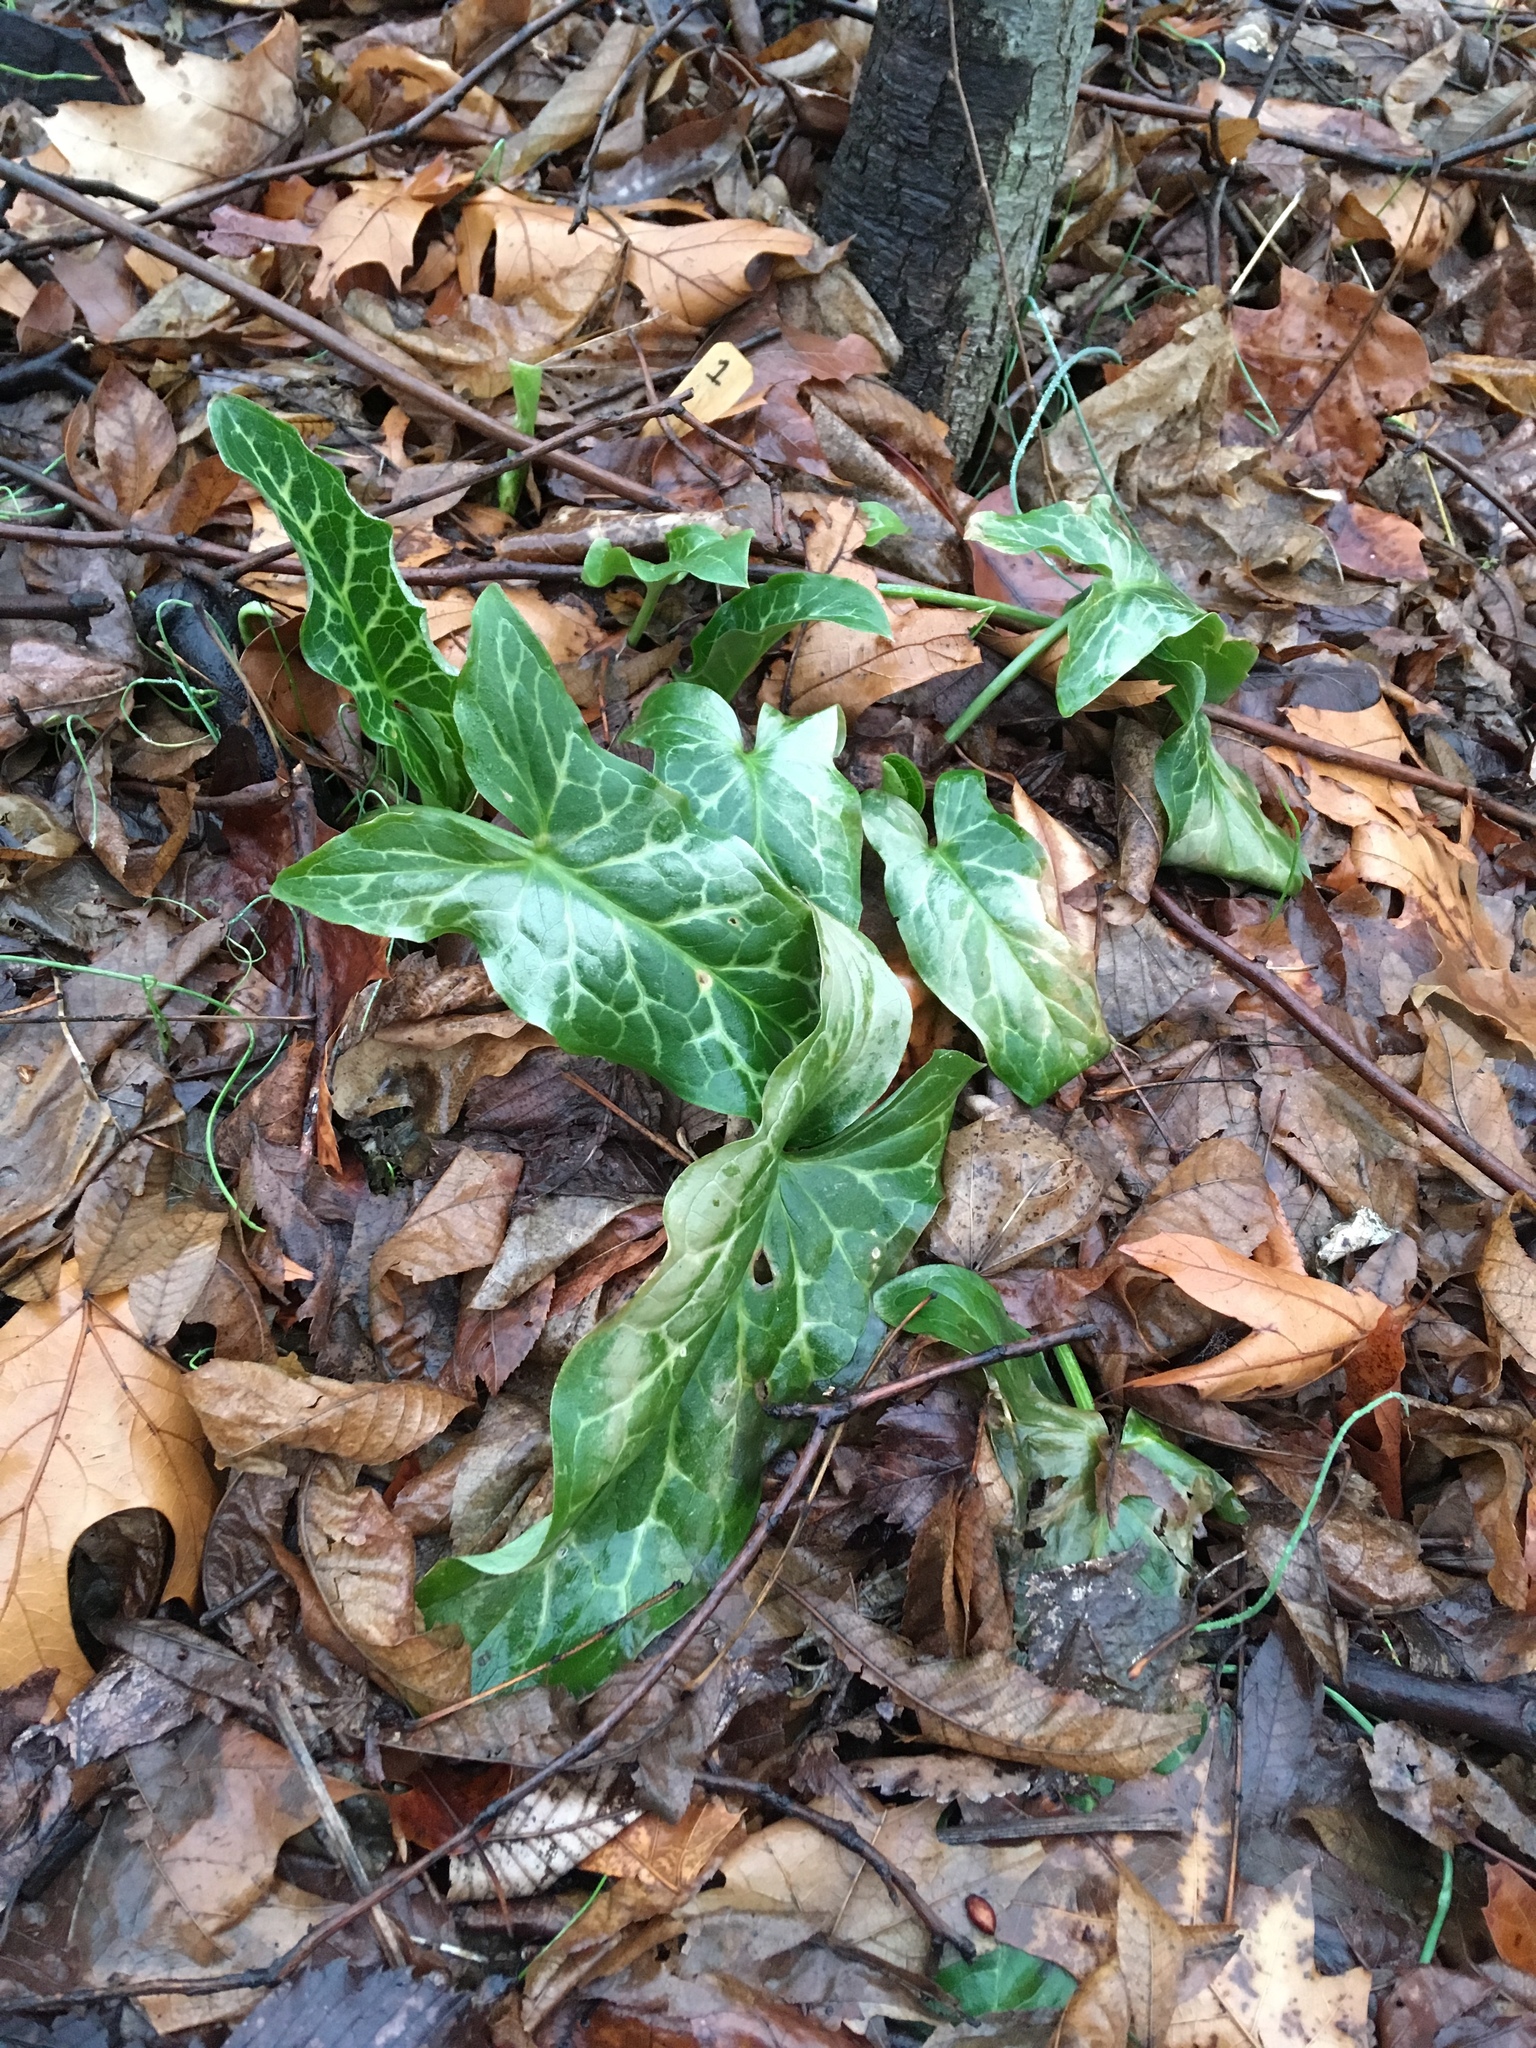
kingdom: Plantae
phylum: Tracheophyta
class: Liliopsida
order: Alismatales
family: Araceae
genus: Arum
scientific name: Arum italicum
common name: Italian lords-and-ladies
